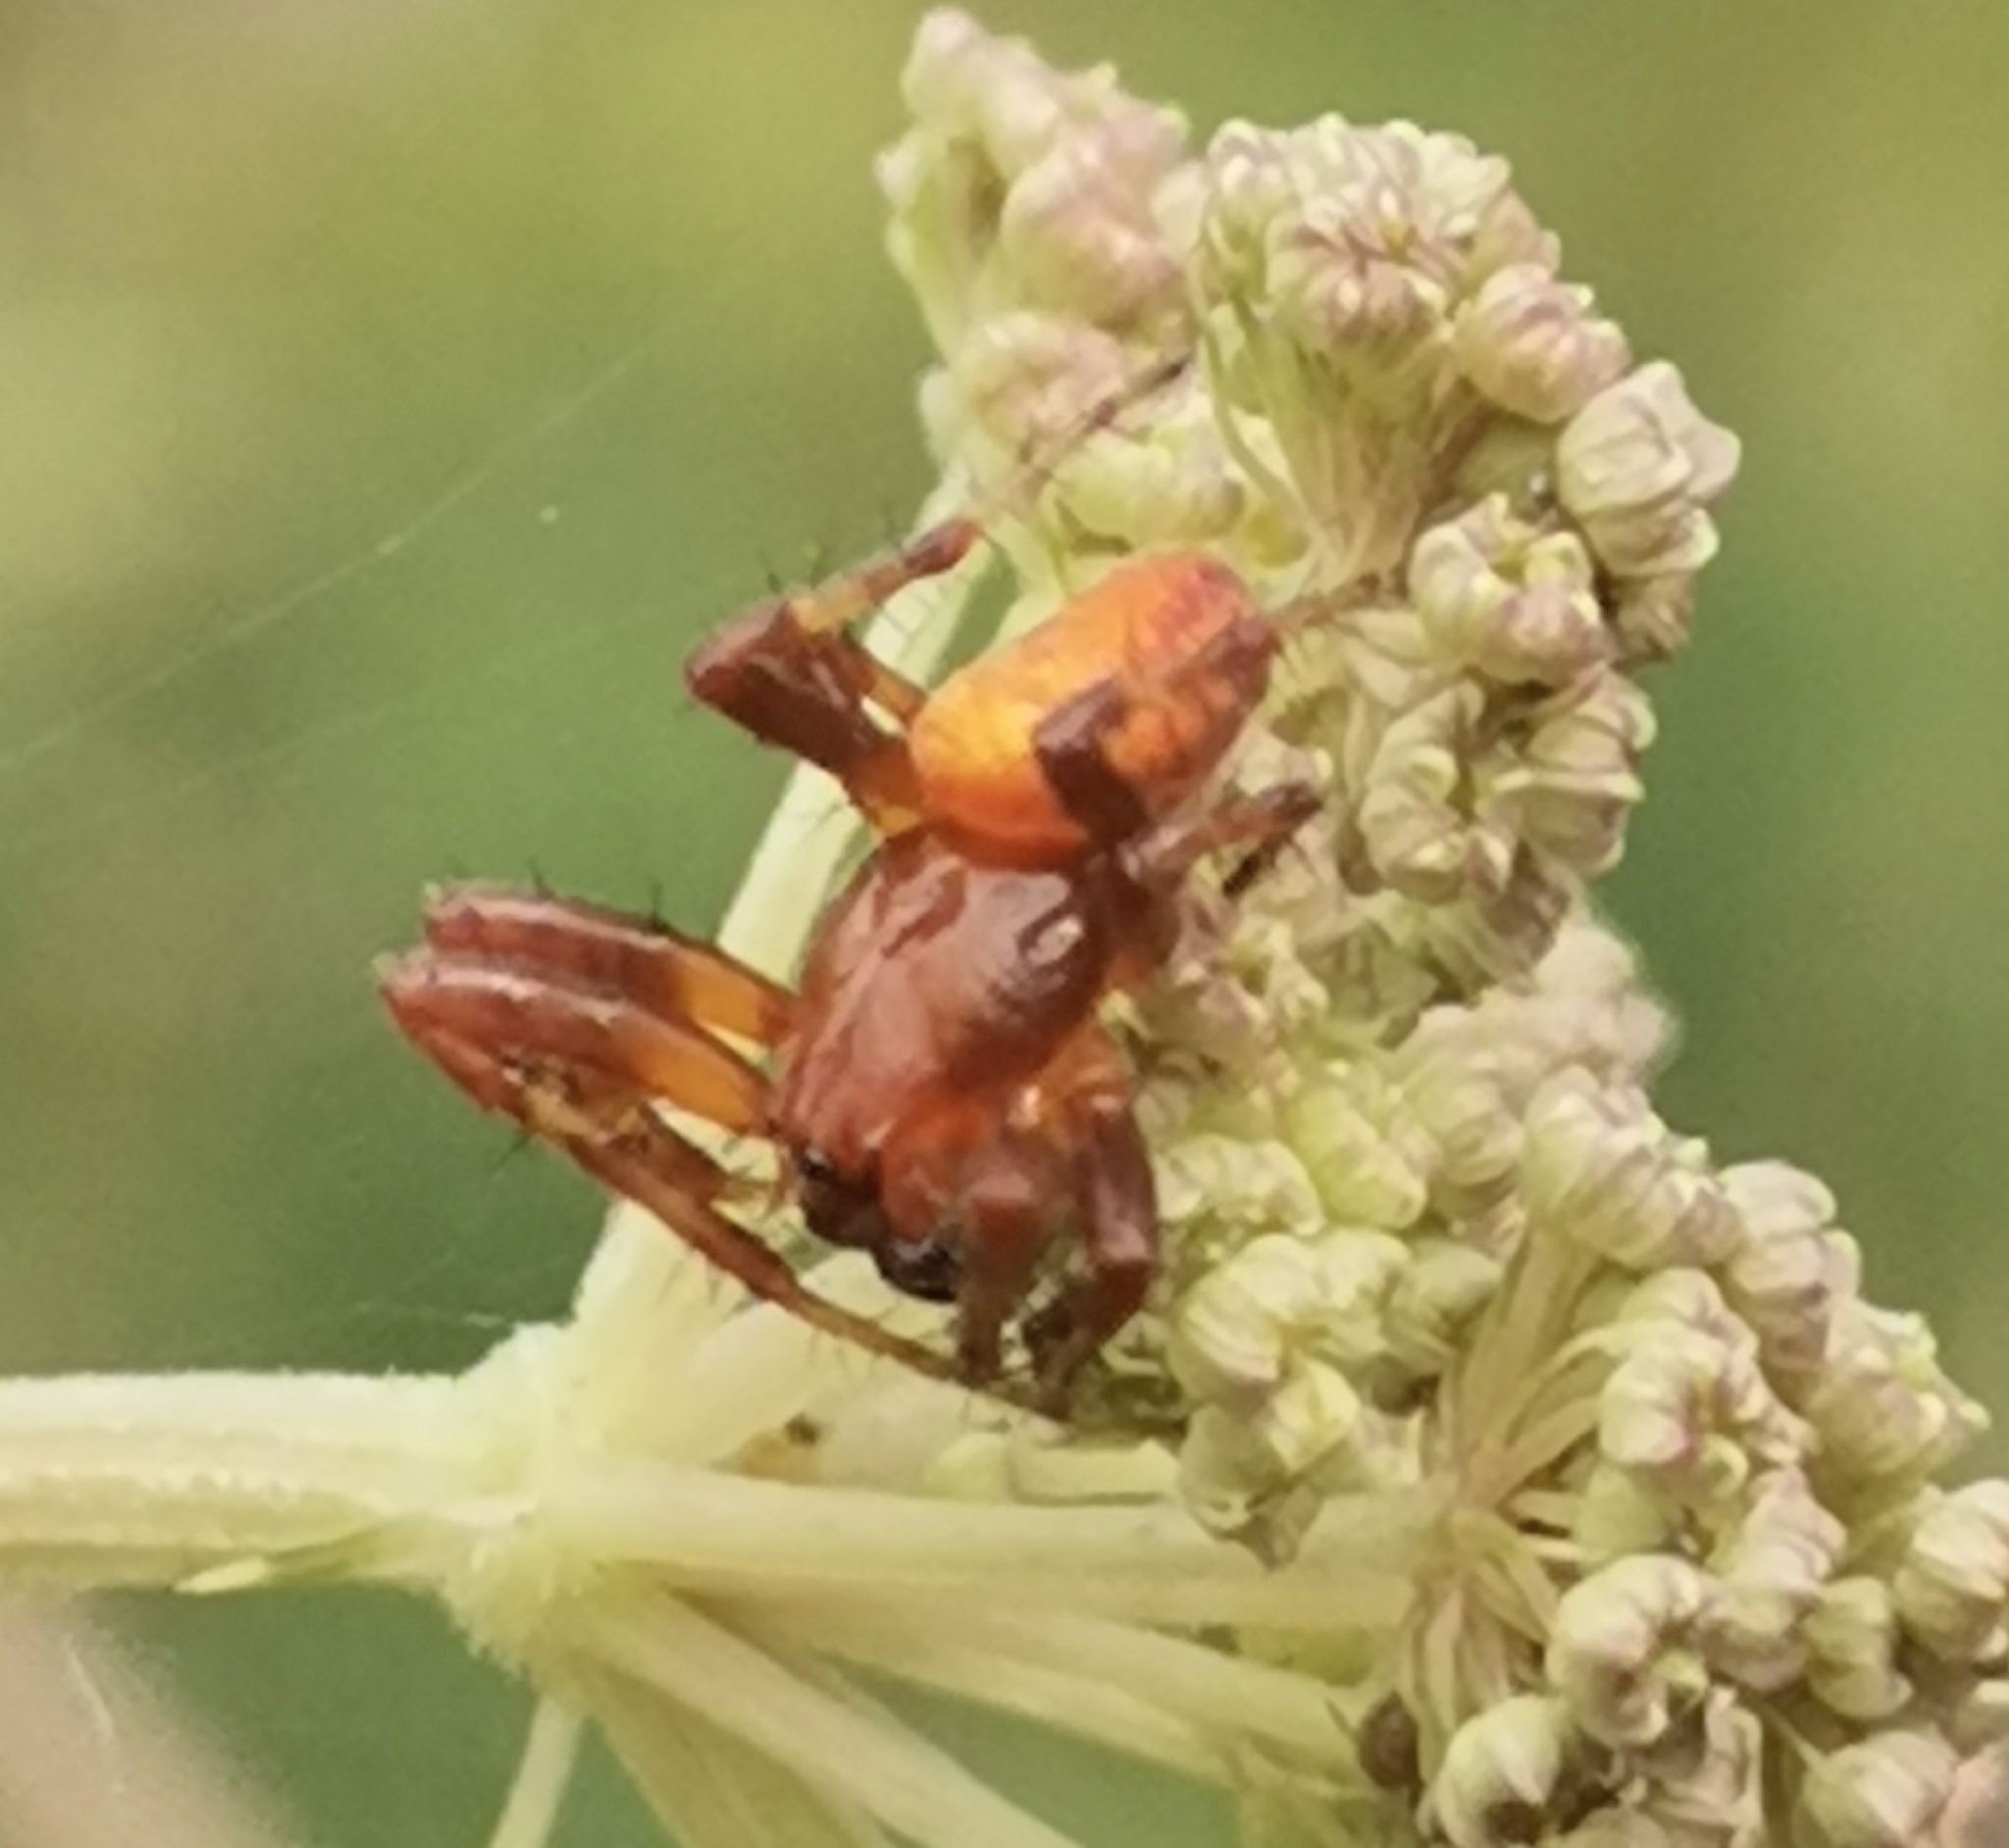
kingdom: Animalia
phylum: Arthropoda
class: Arachnida
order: Araneae
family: Araneidae
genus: Araneus
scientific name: Araneus alsine
